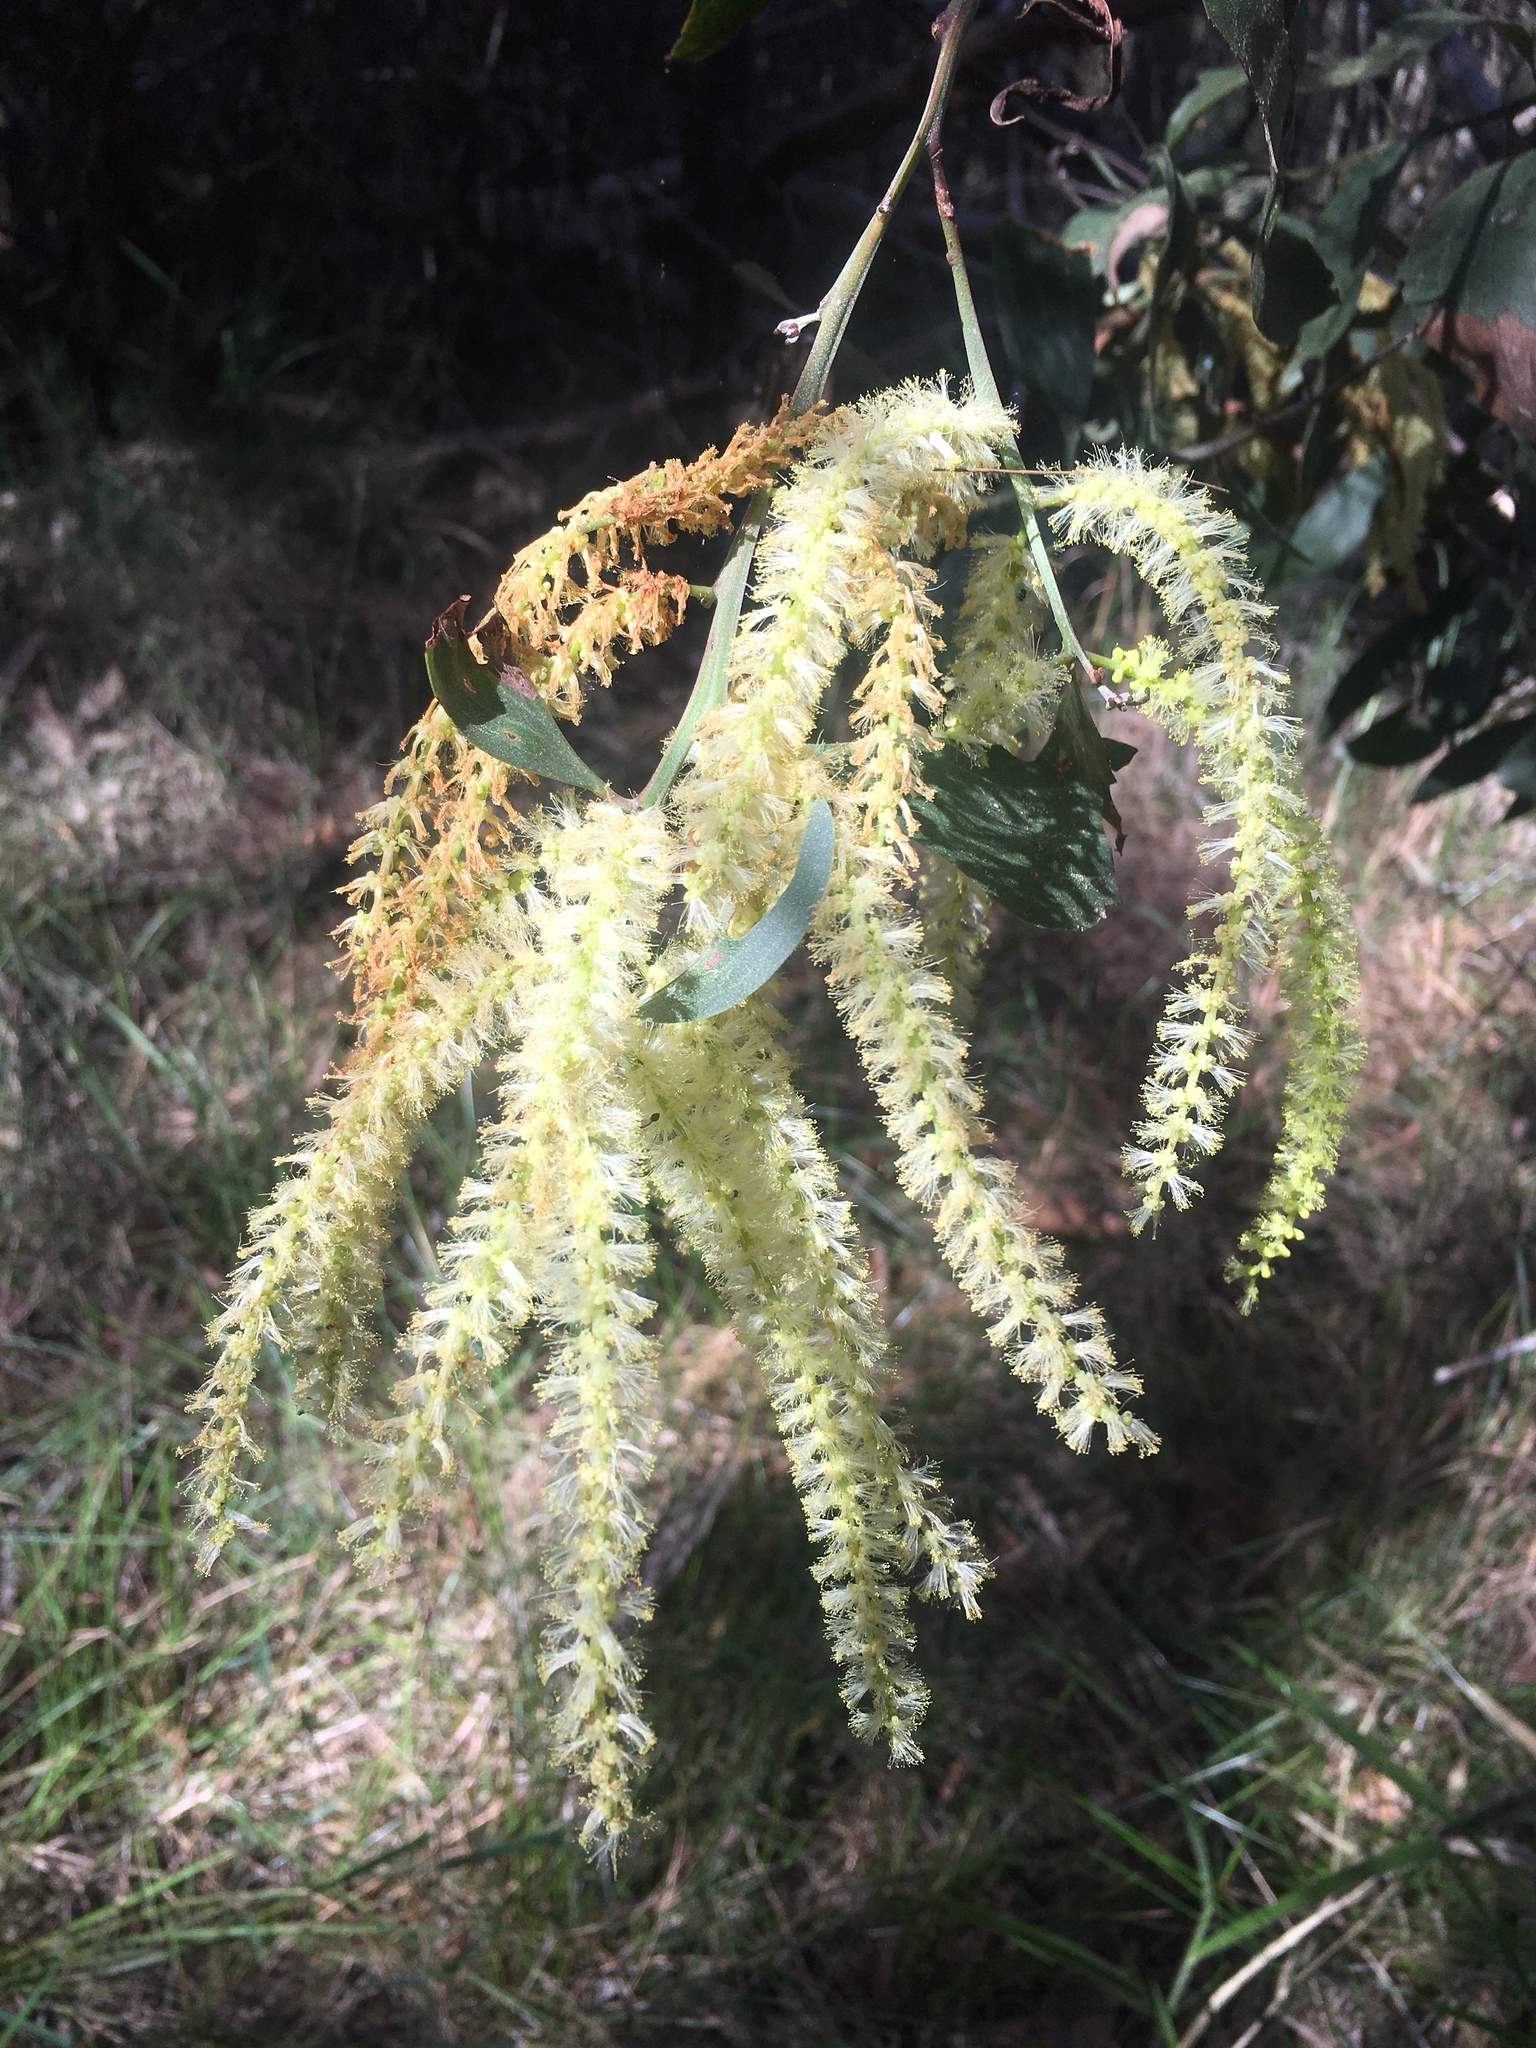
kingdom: Plantae
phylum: Tracheophyta
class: Magnoliopsida
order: Fabales
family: Fabaceae
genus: Acacia
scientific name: Acacia concurrens
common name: Black wattle
